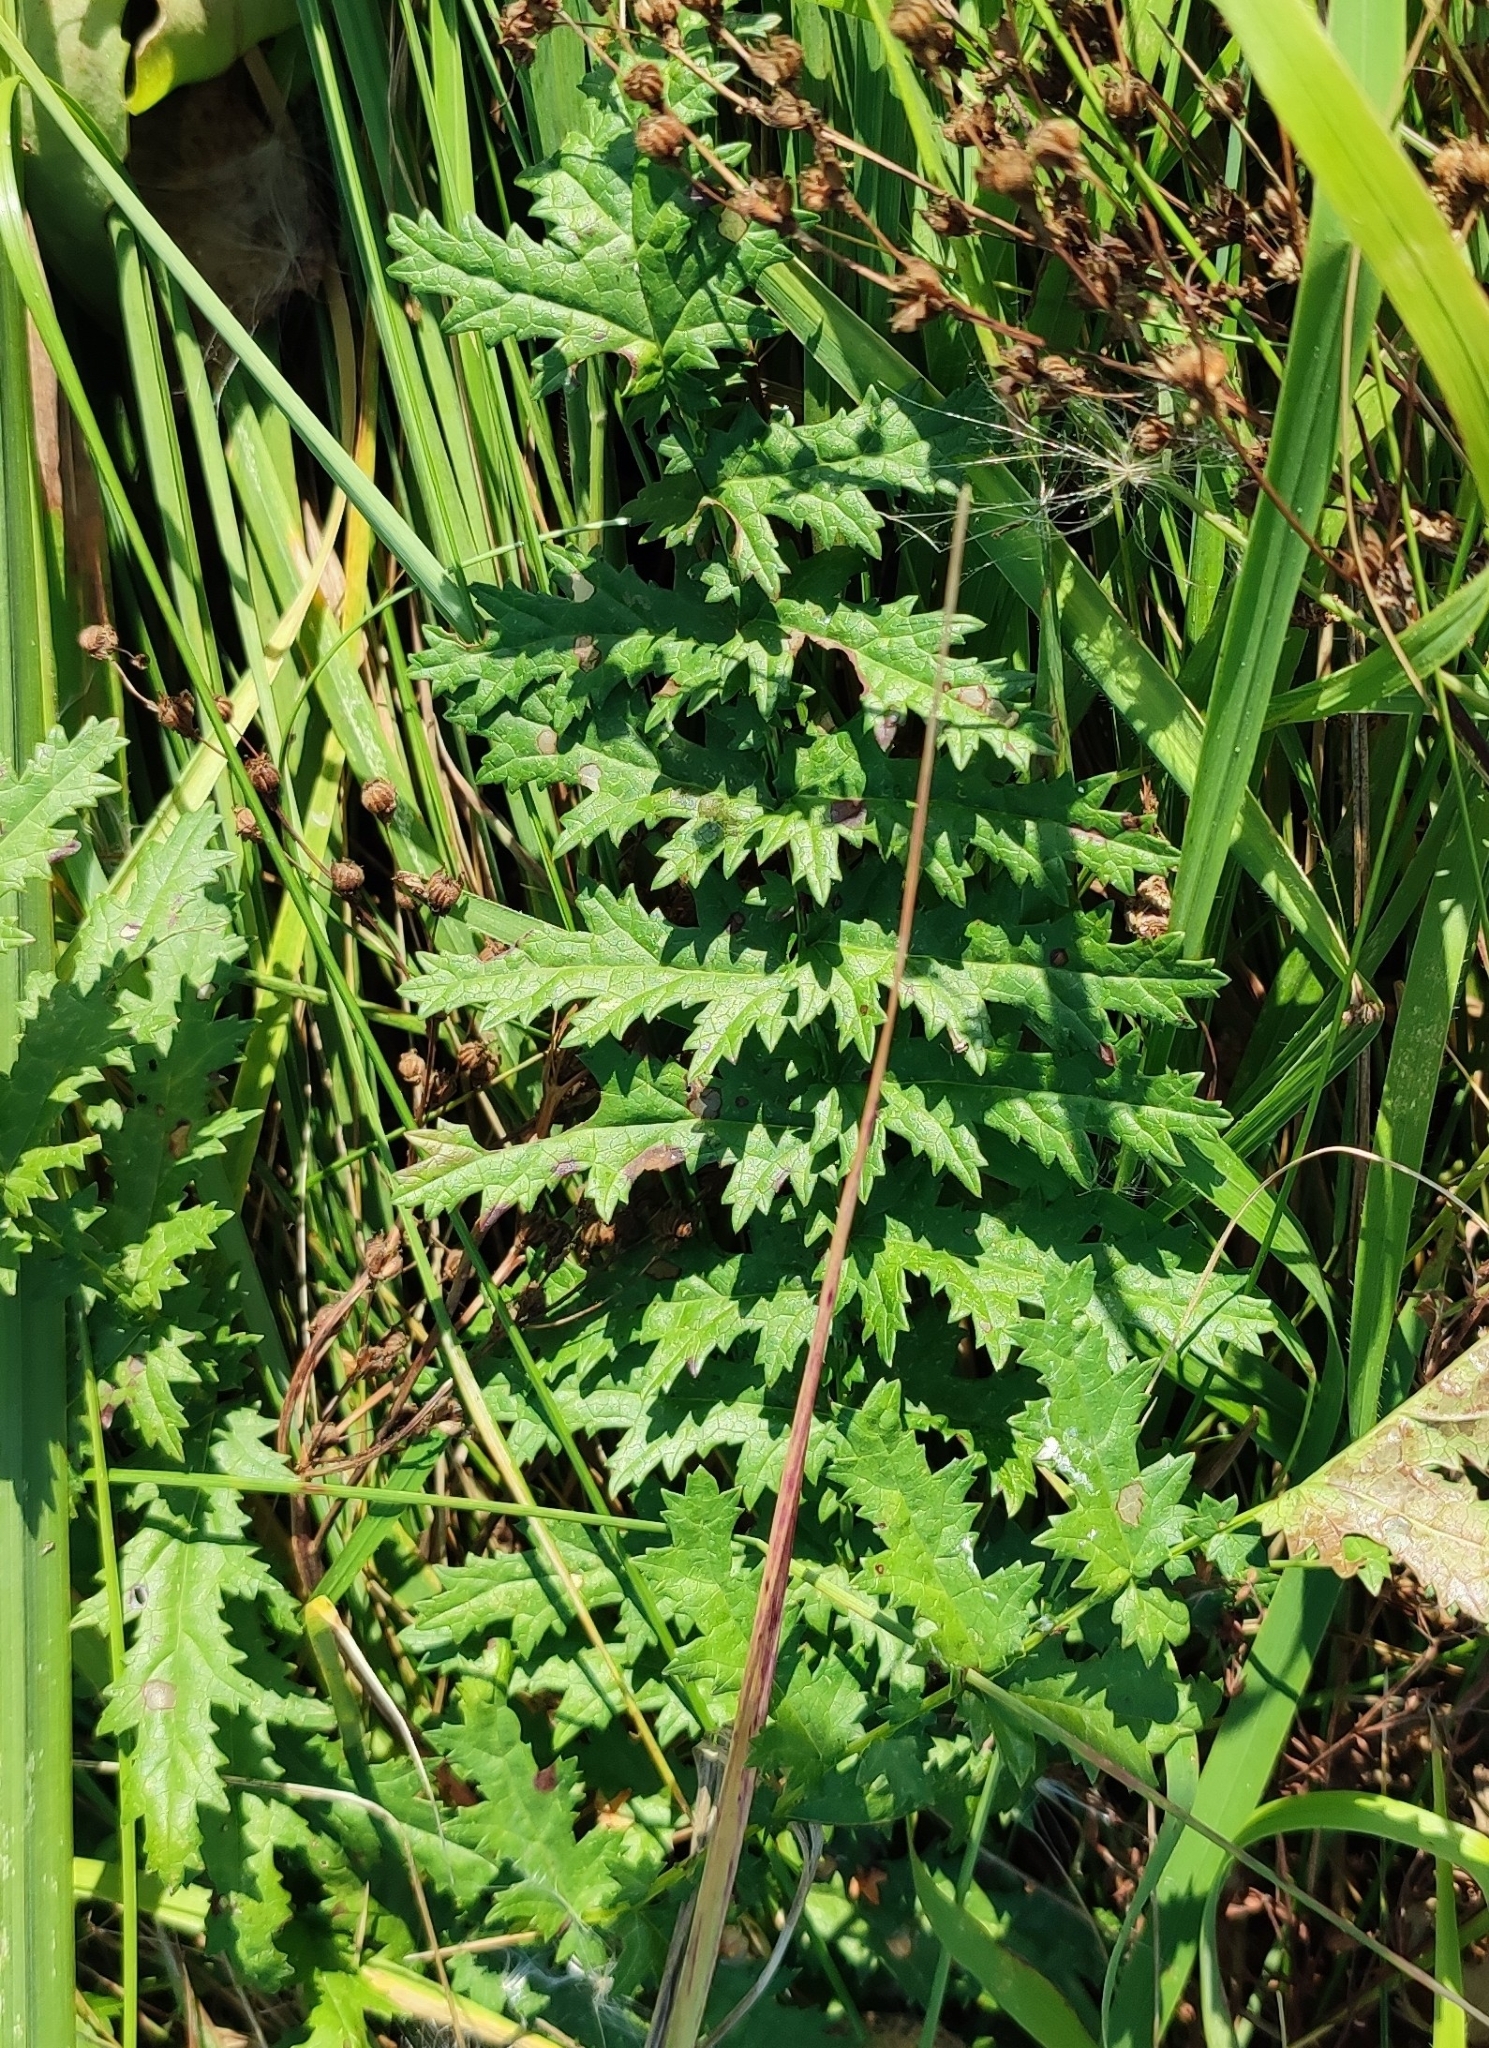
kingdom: Plantae
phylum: Tracheophyta
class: Magnoliopsida
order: Apiales
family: Apiaceae
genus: Seseli
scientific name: Seseli libanotis
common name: Mooncarrot
